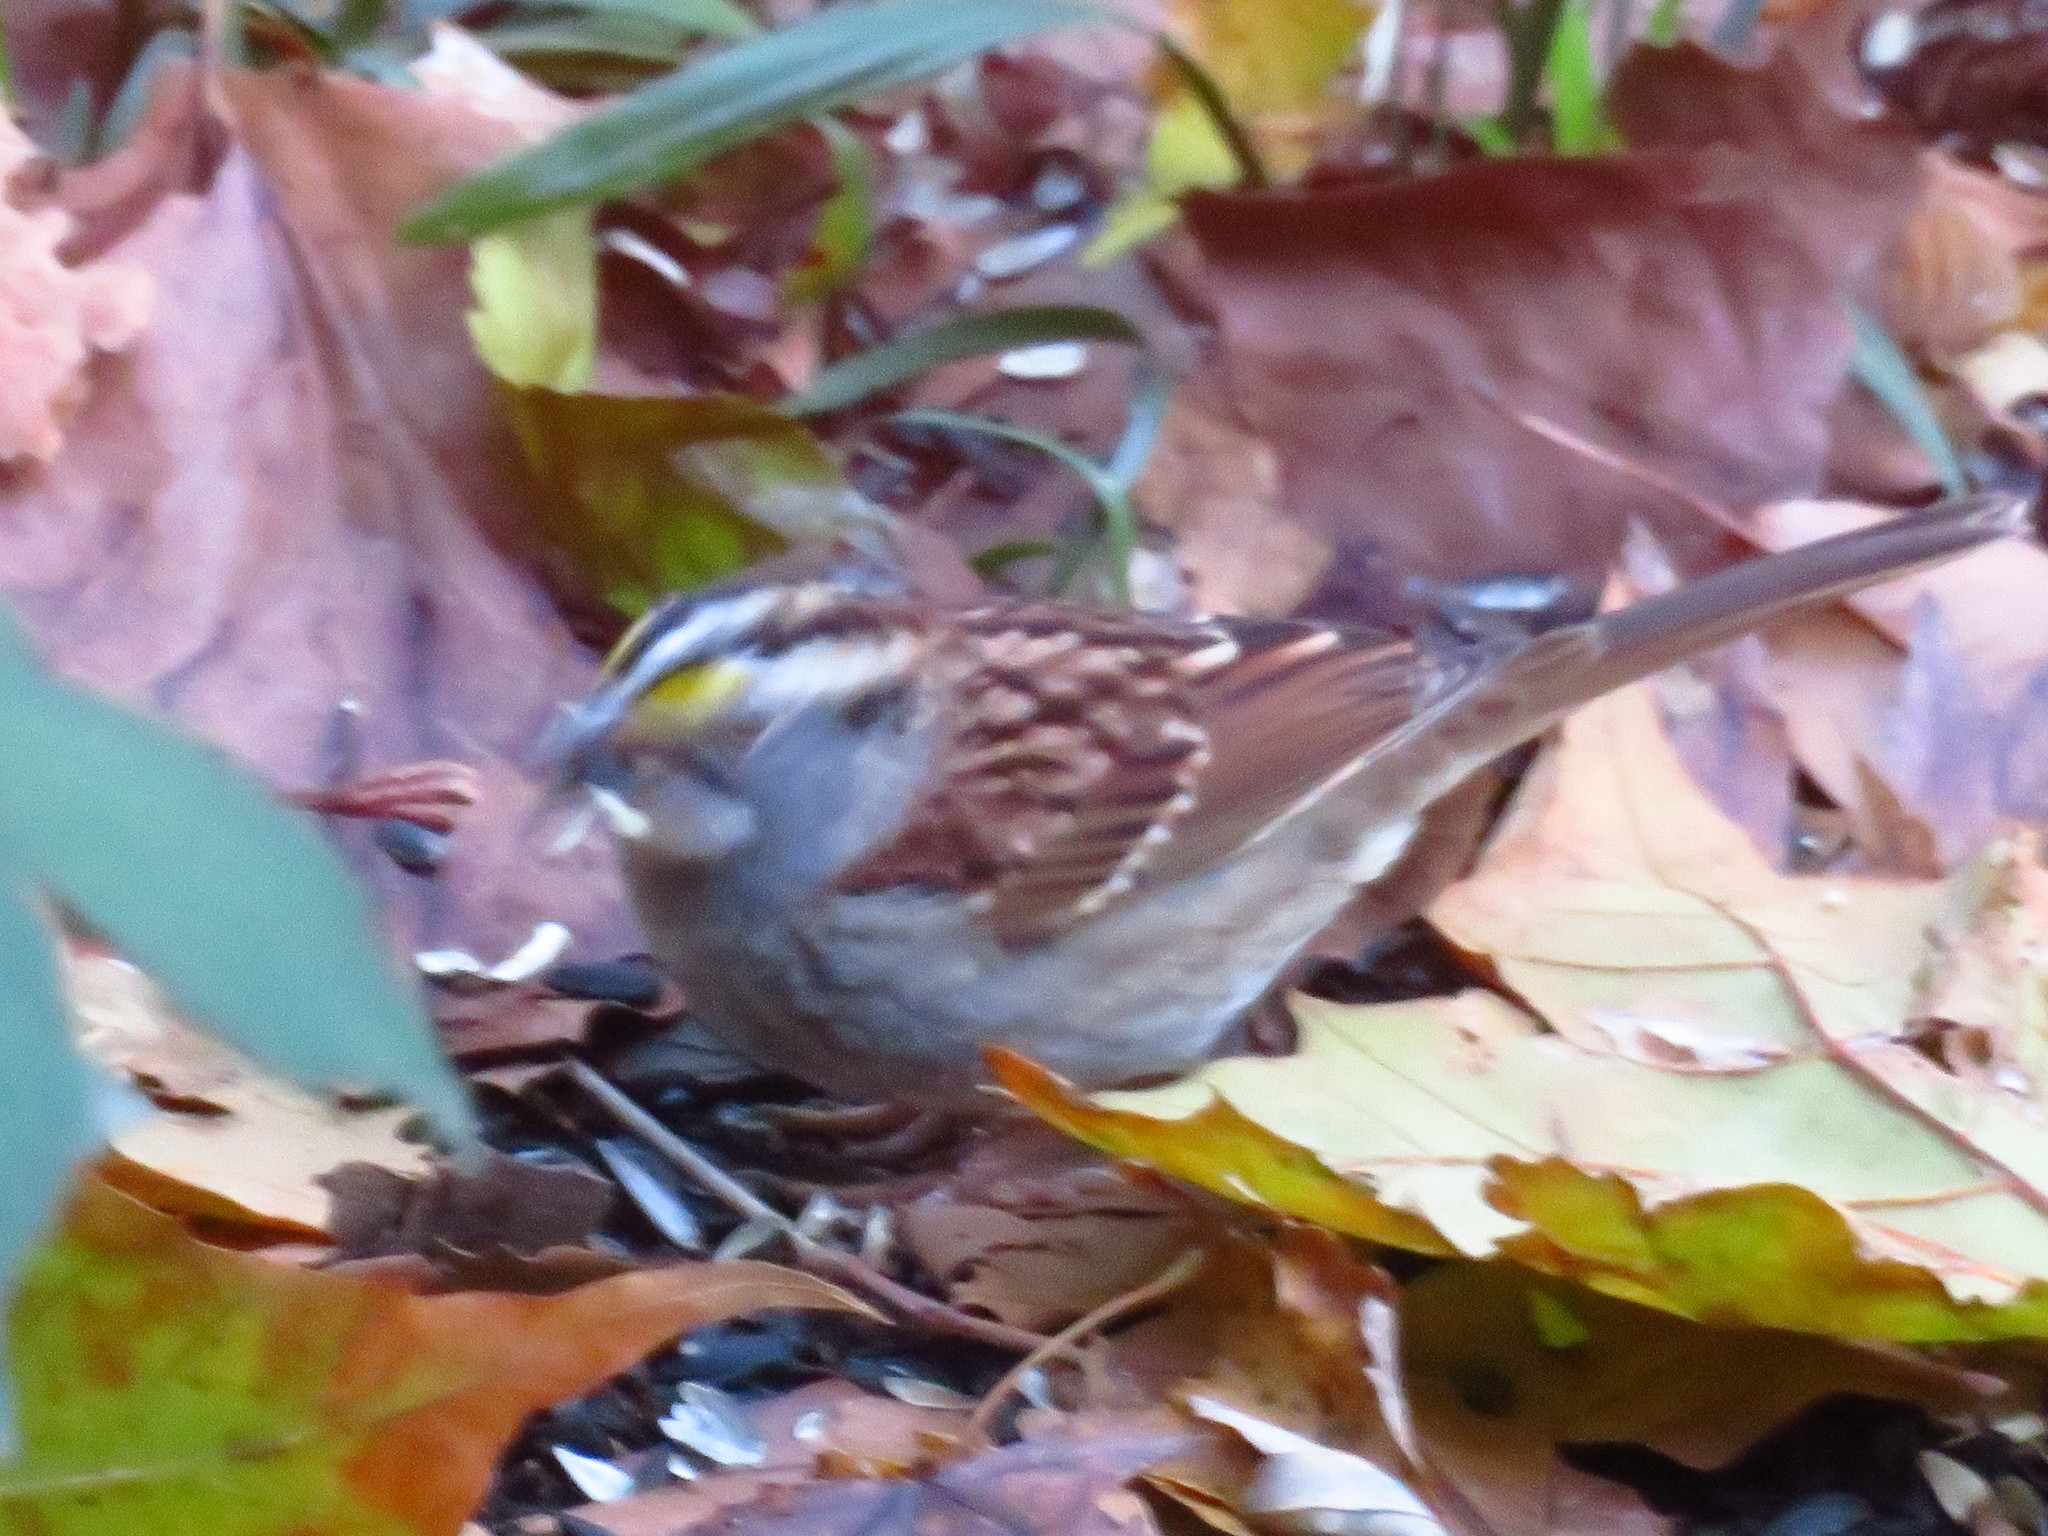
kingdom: Animalia
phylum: Chordata
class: Aves
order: Passeriformes
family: Passerellidae
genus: Zonotrichia
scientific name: Zonotrichia albicollis
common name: White-throated sparrow
